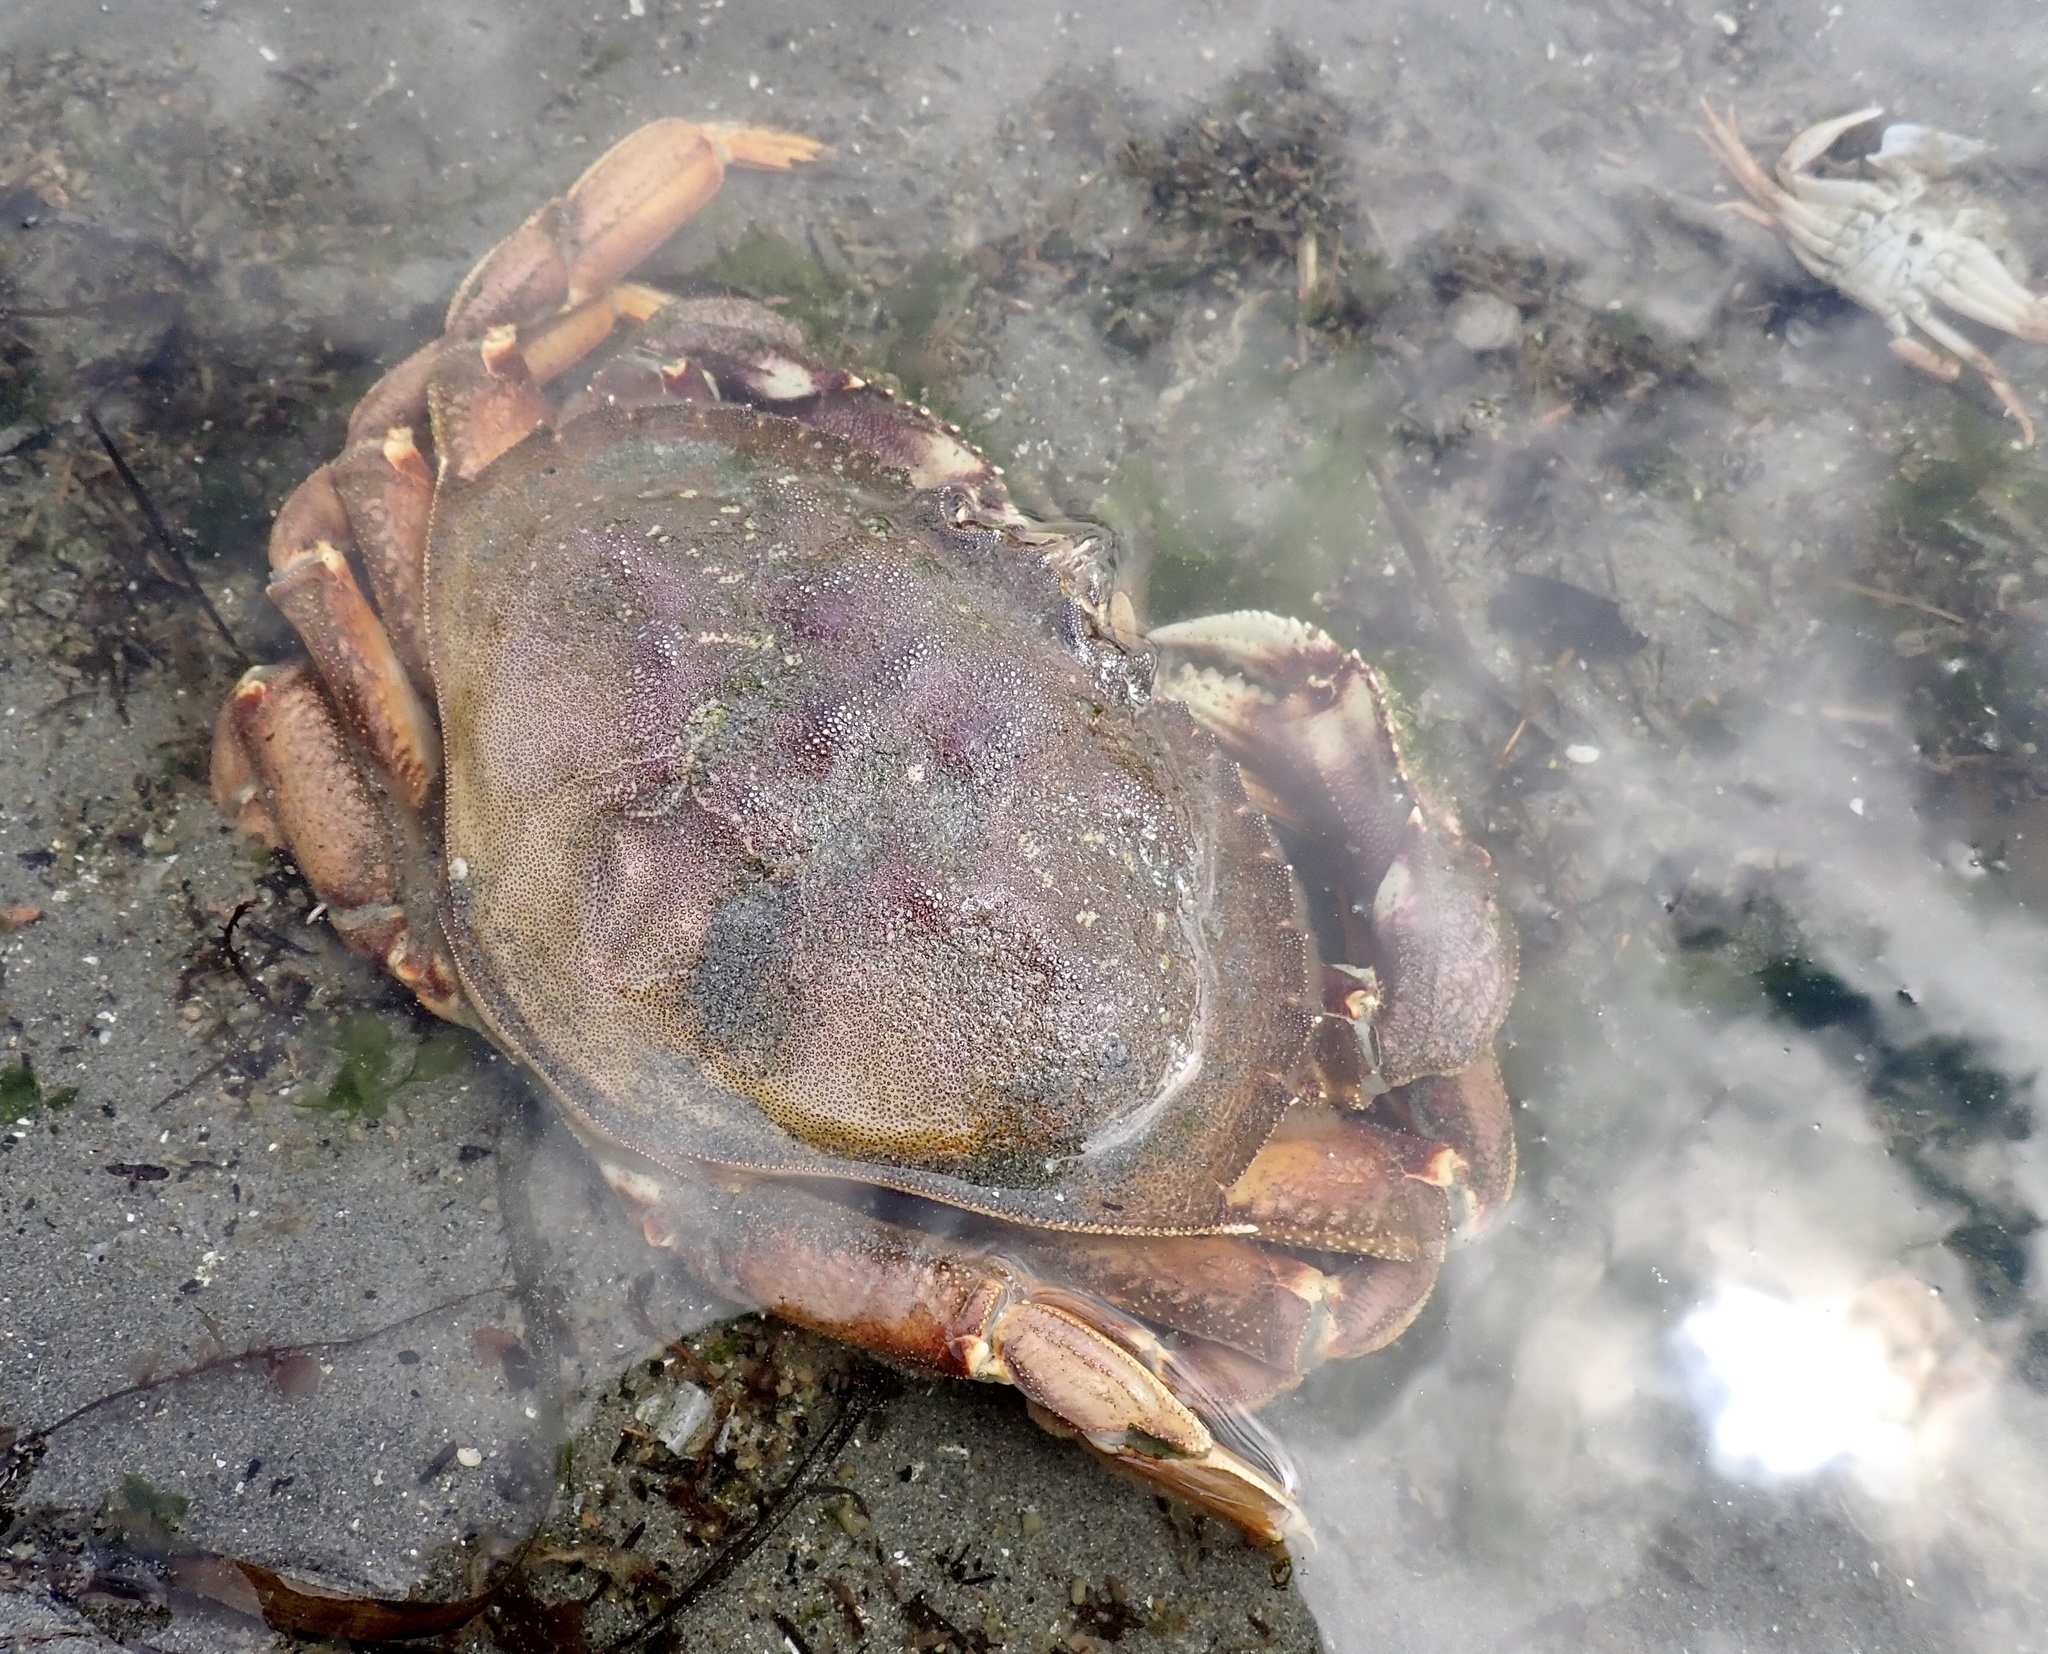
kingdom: Animalia
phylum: Arthropoda
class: Malacostraca
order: Decapoda
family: Cancridae
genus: Metacarcinus
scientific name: Metacarcinus magister
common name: Californian crab
